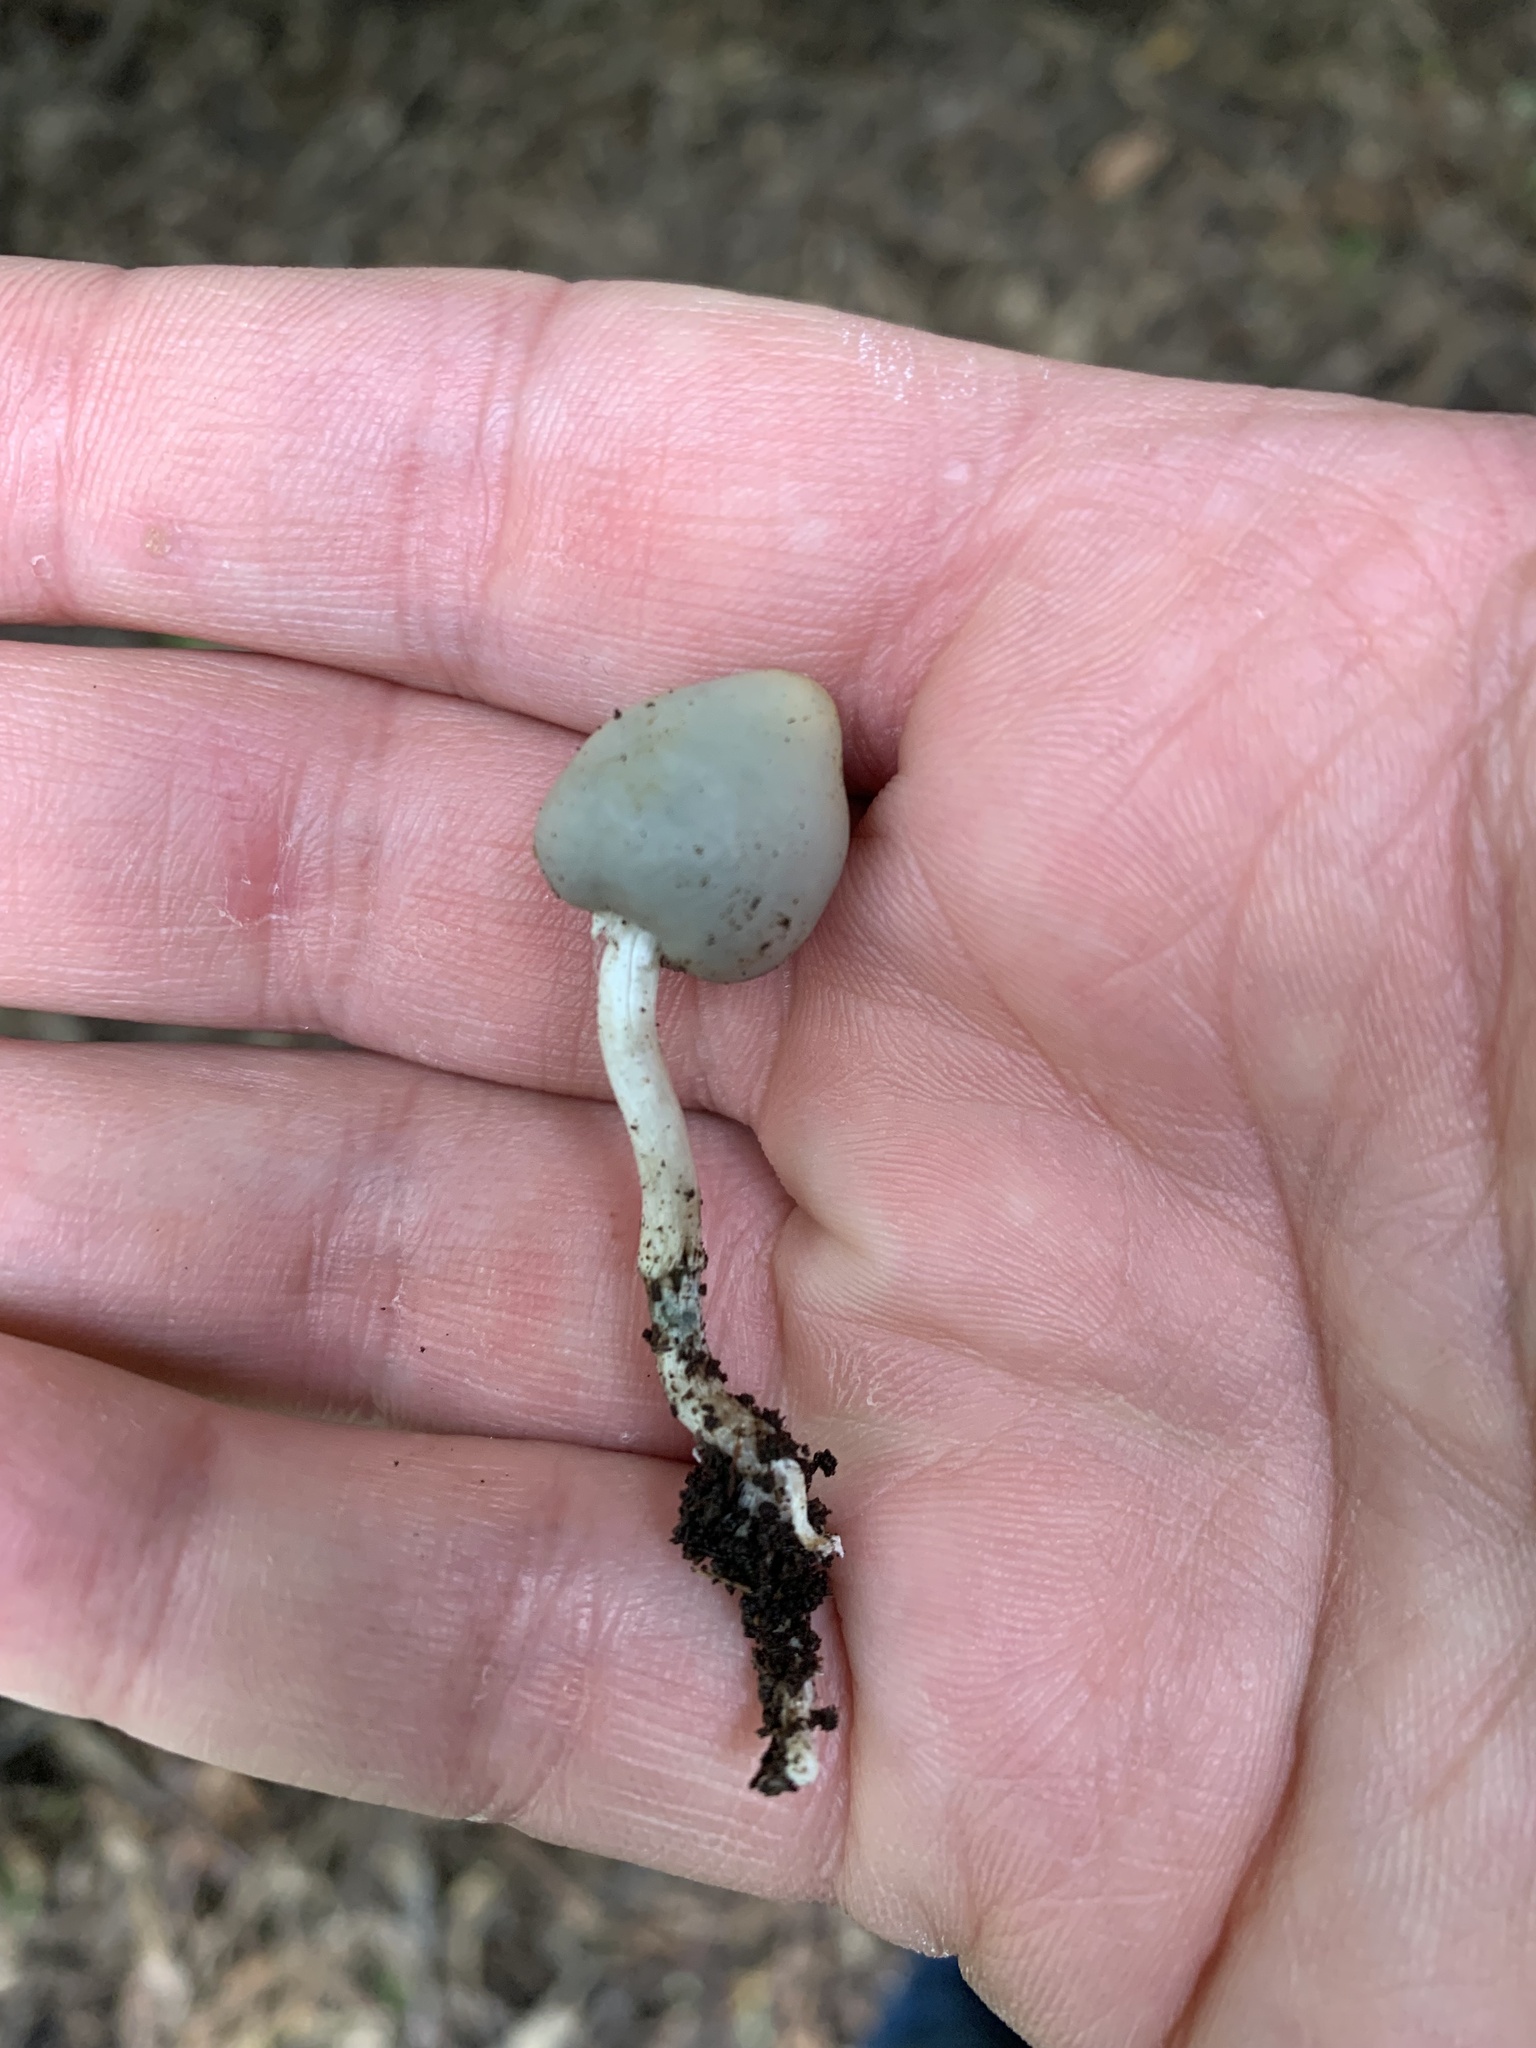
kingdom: Fungi
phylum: Basidiomycota
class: Agaricomycetes
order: Agaricales
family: Hymenogastraceae
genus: Psilocybe
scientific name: Psilocybe weraroa
